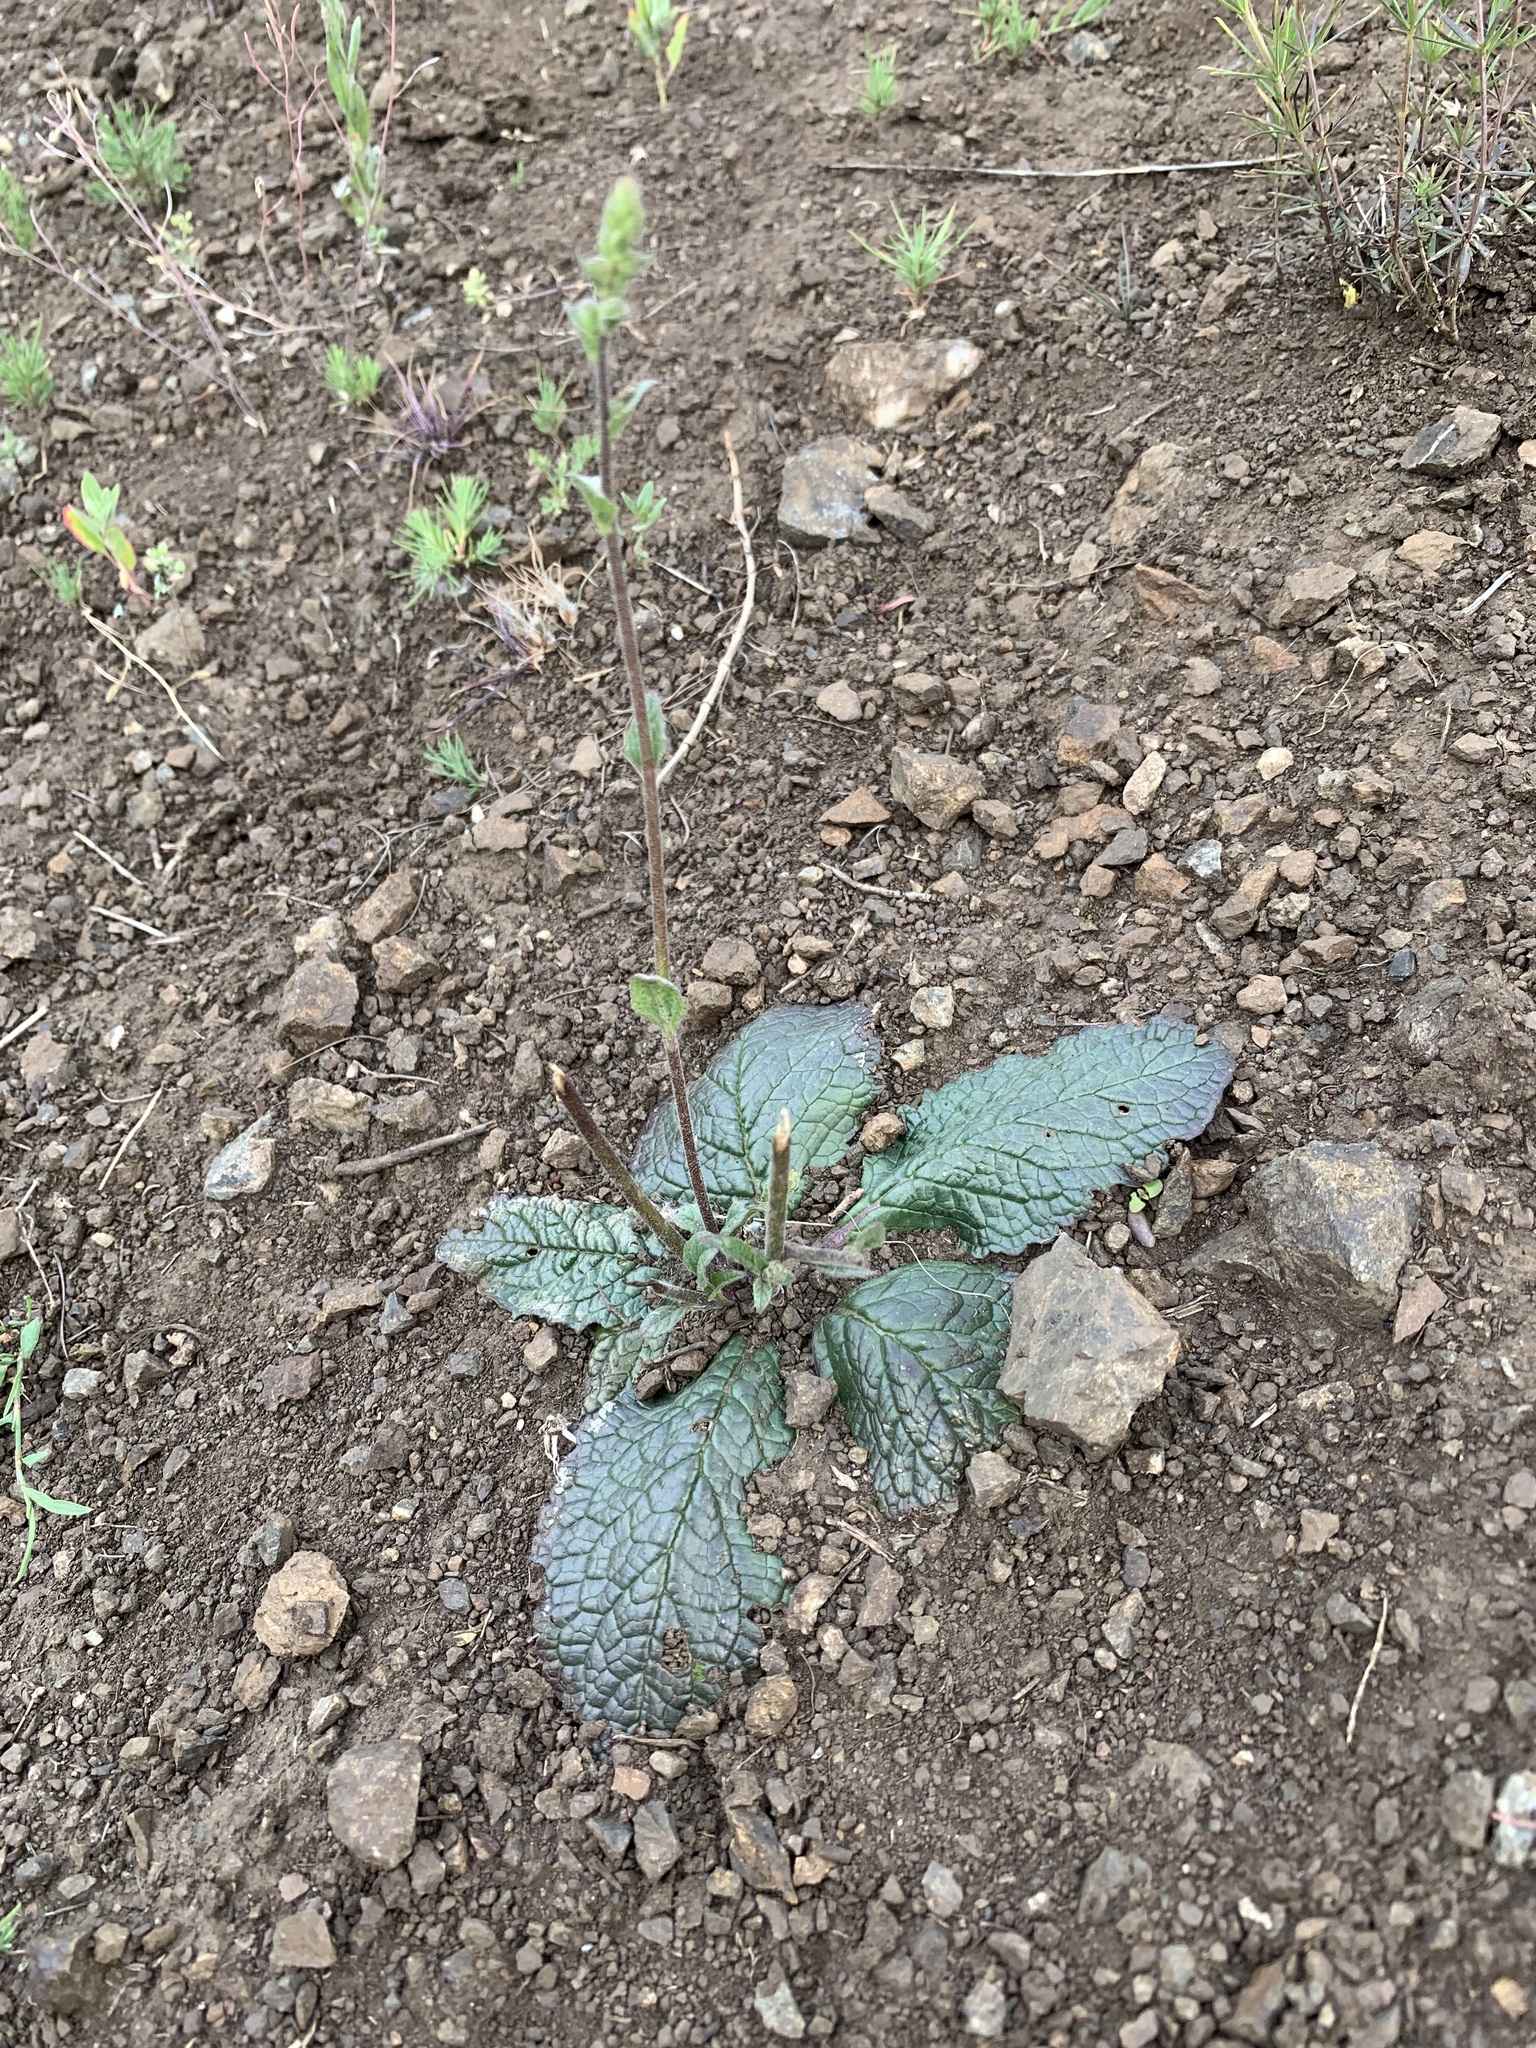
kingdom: Plantae
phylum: Tracheophyta
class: Magnoliopsida
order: Lamiales
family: Scrophulariaceae
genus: Verbascum
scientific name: Verbascum phoeniceum
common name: Purple mullein
